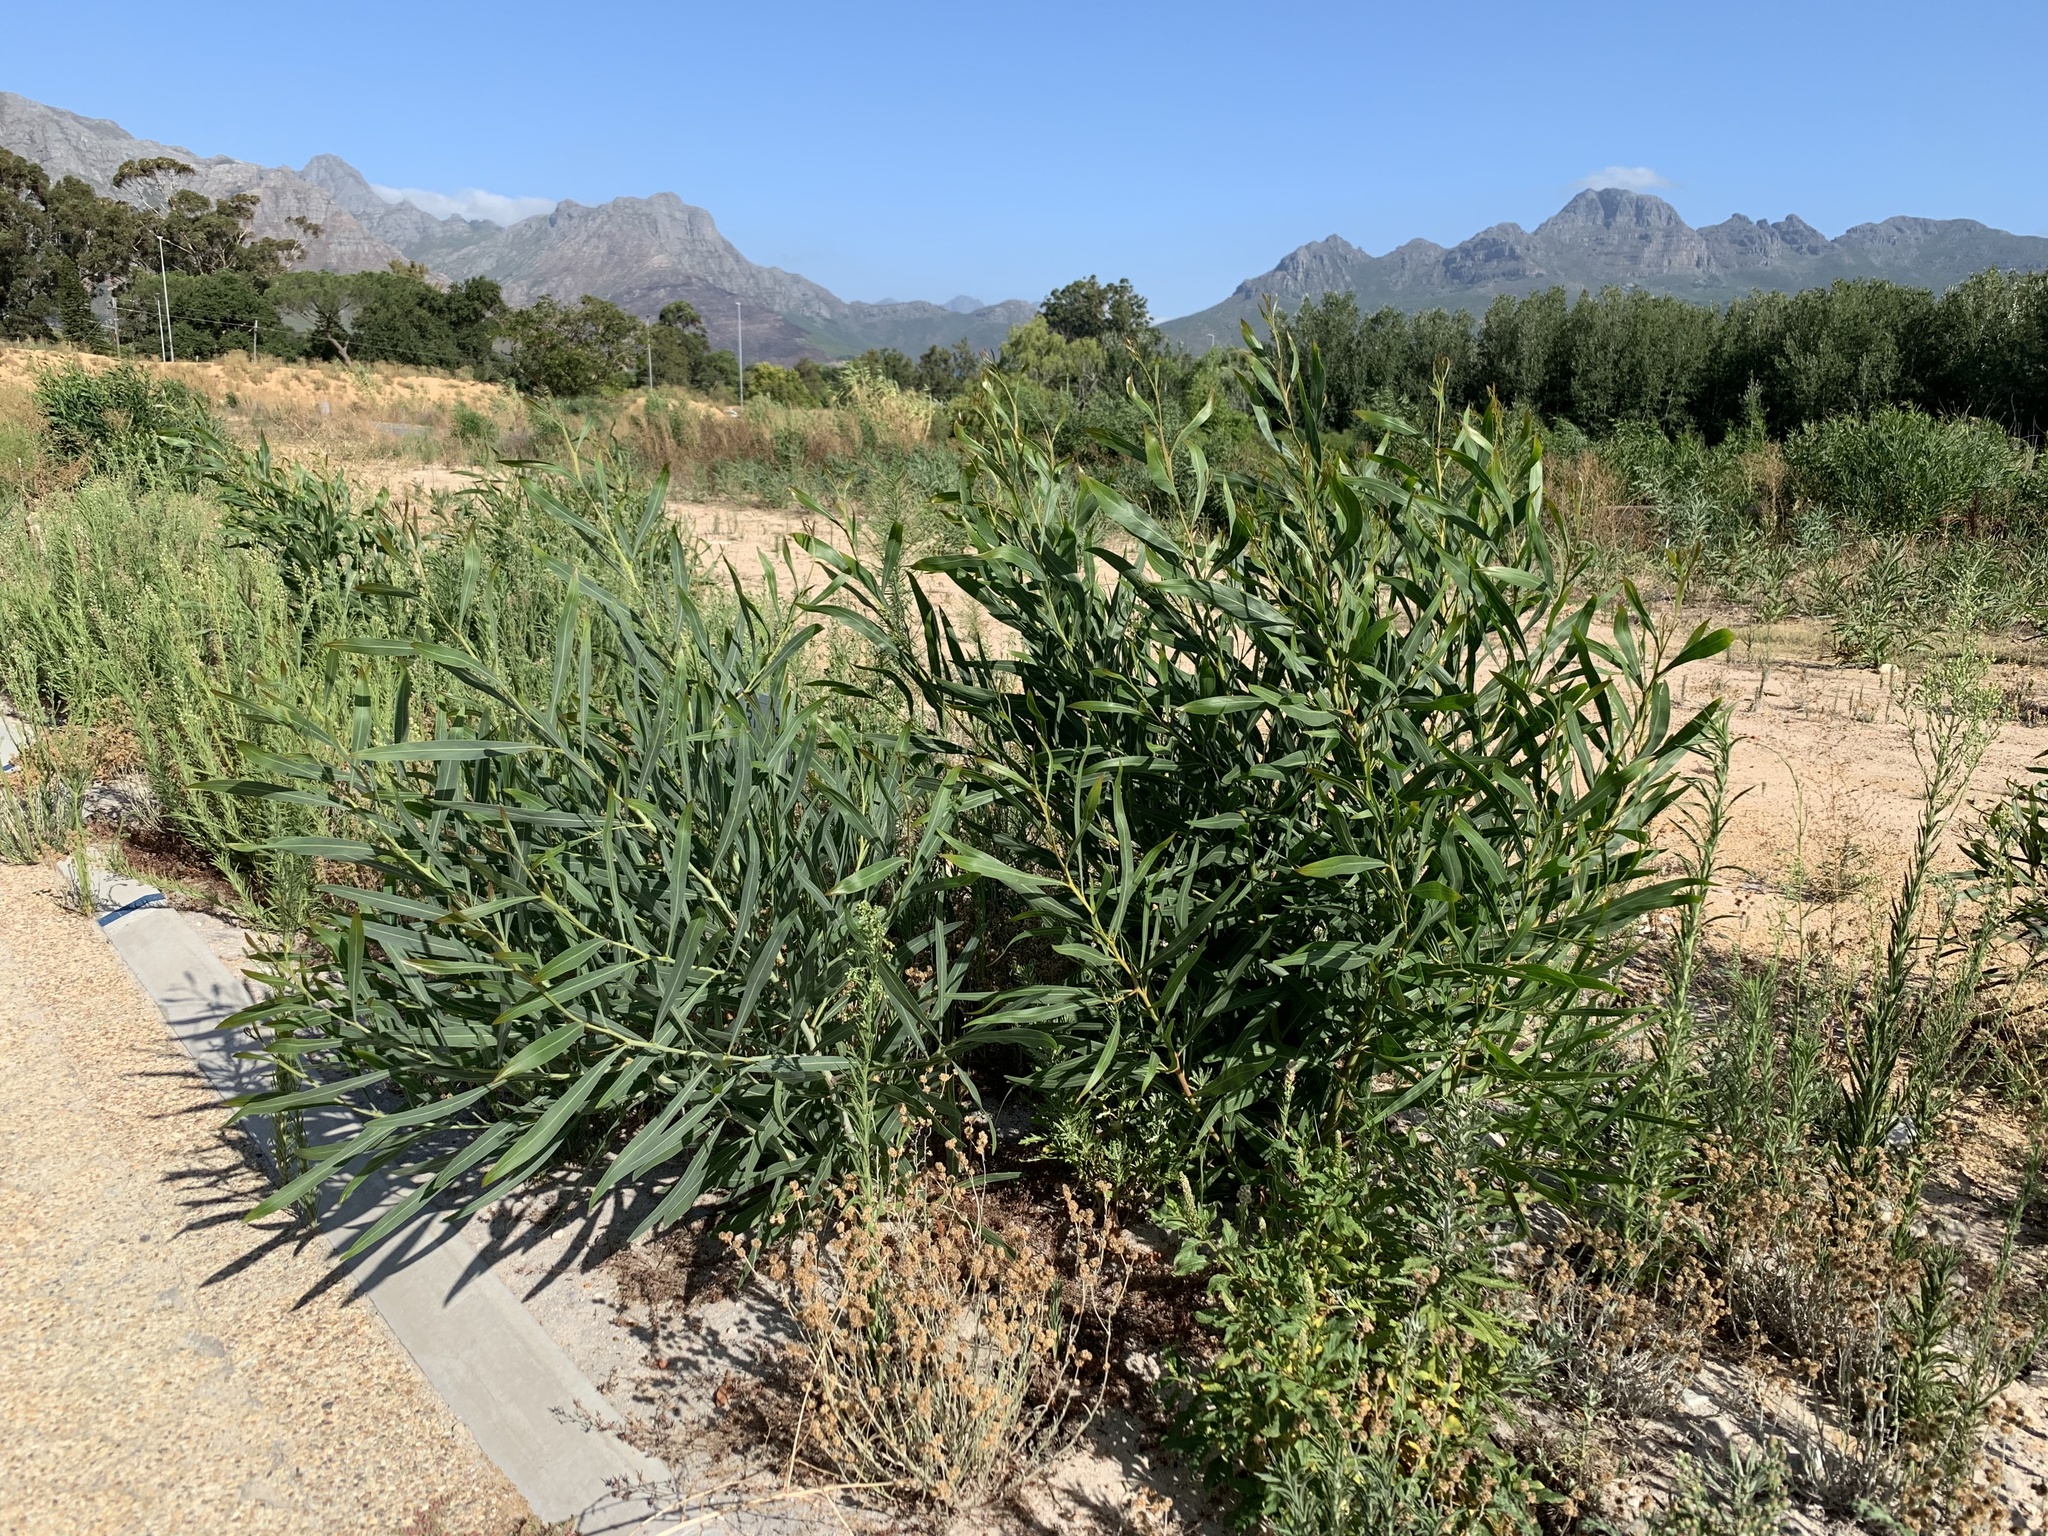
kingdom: Plantae
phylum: Tracheophyta
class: Magnoliopsida
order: Fabales
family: Fabaceae
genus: Acacia
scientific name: Acacia saligna
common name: Orange wattle
